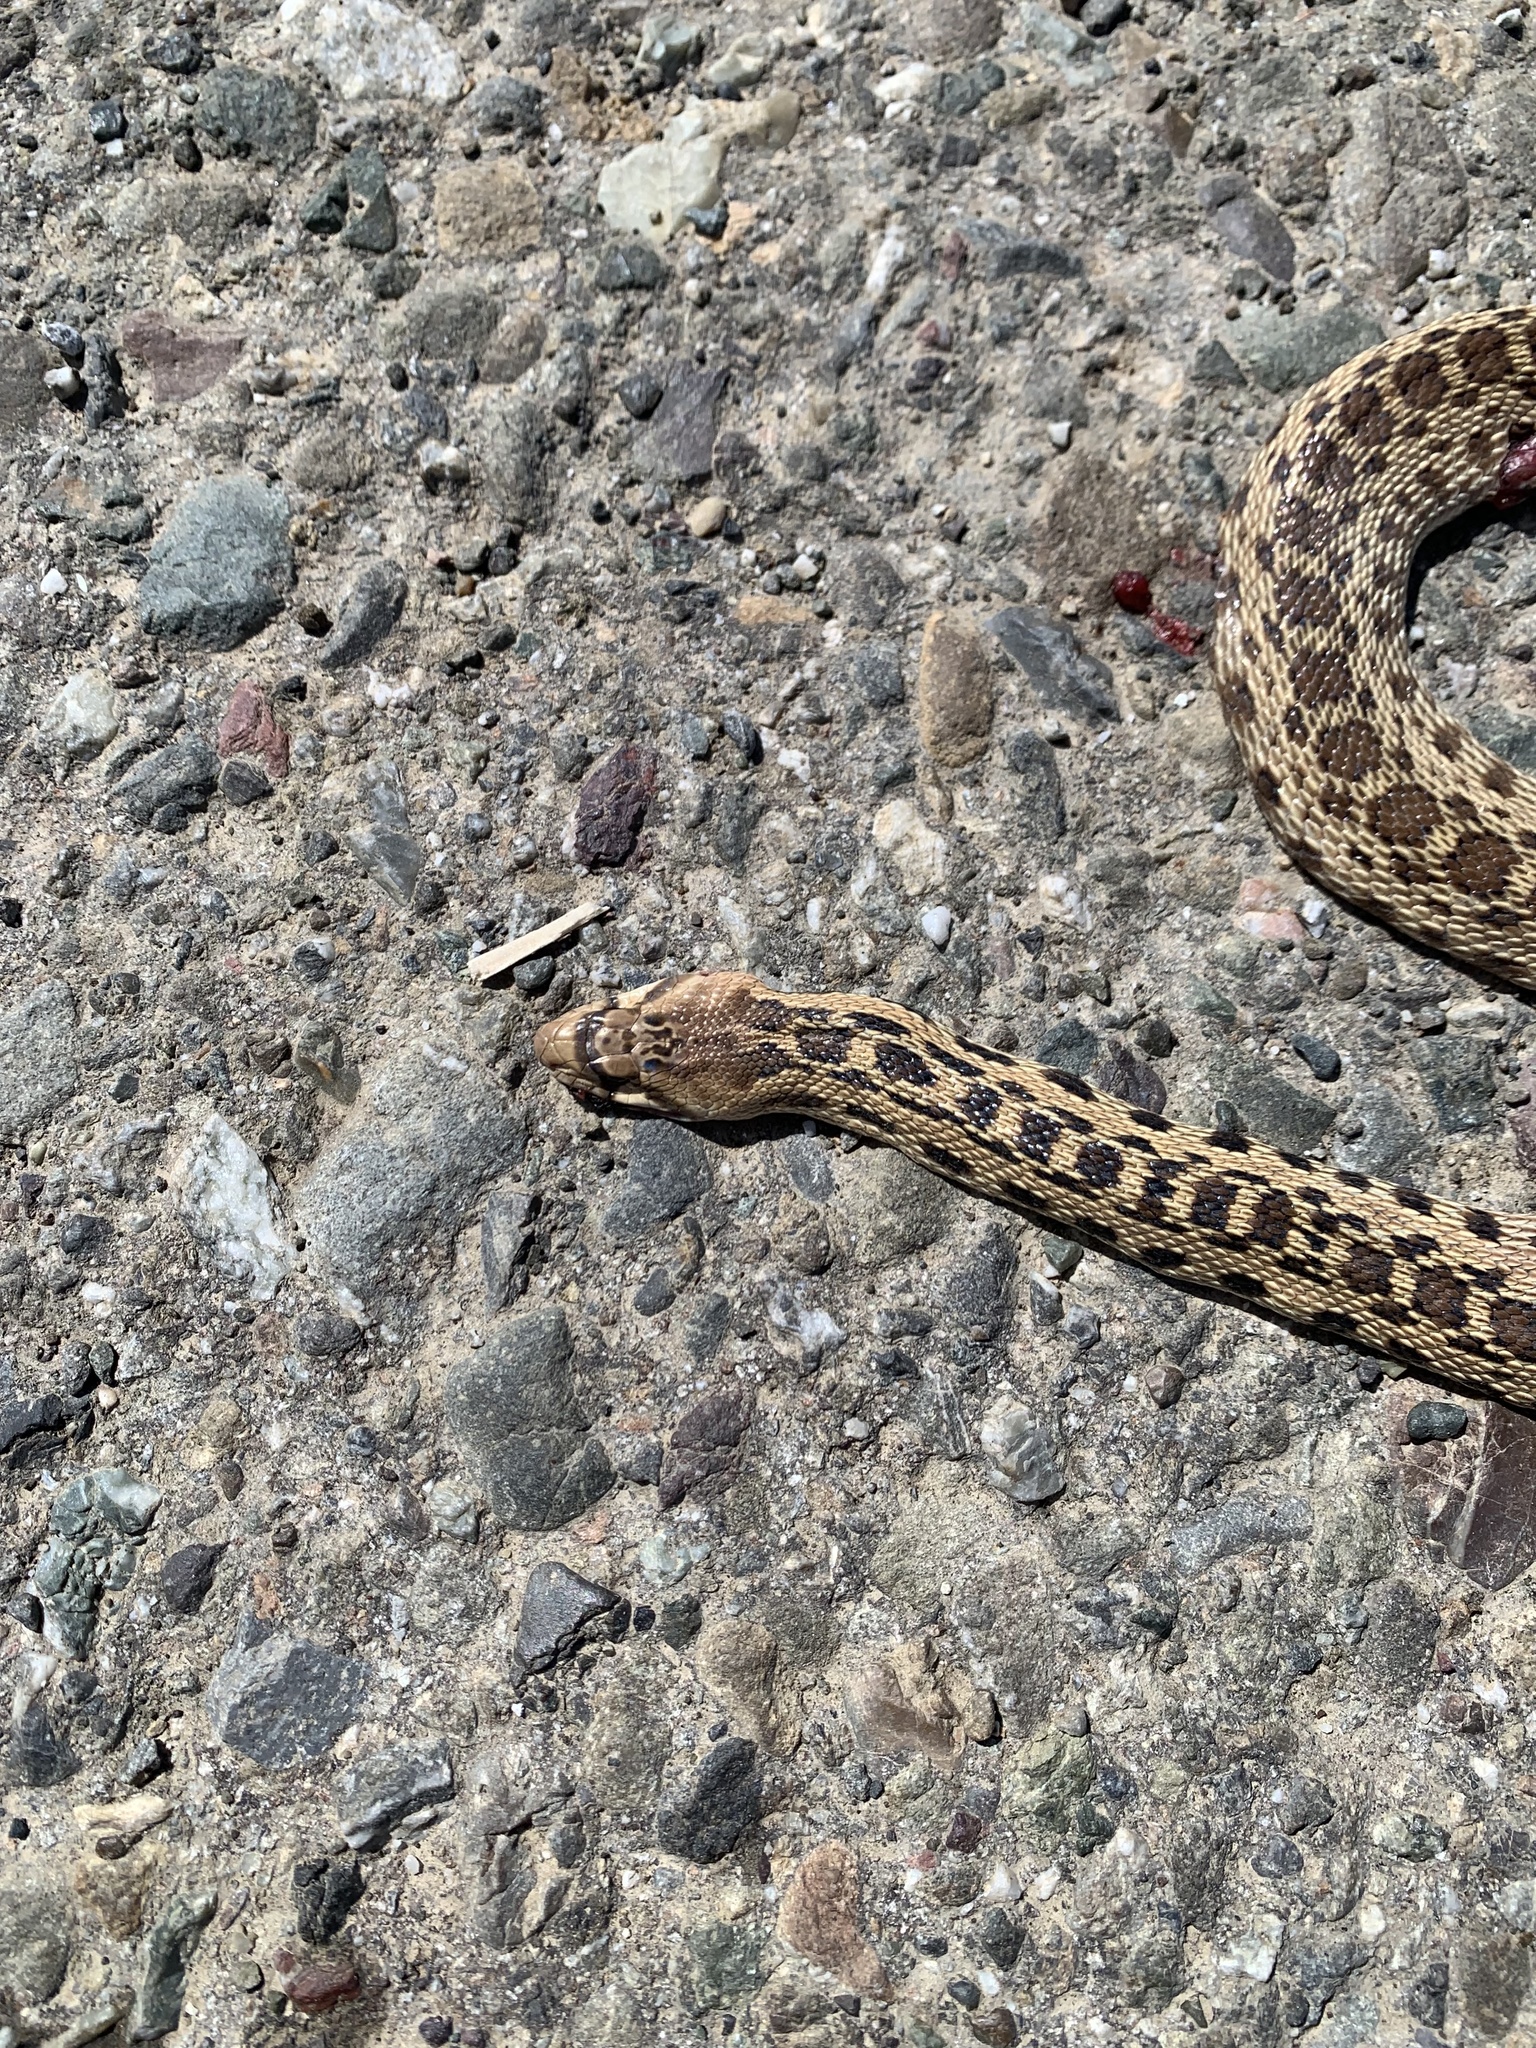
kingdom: Animalia
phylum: Chordata
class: Squamata
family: Colubridae
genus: Pituophis
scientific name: Pituophis catenifer
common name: Gopher snake
